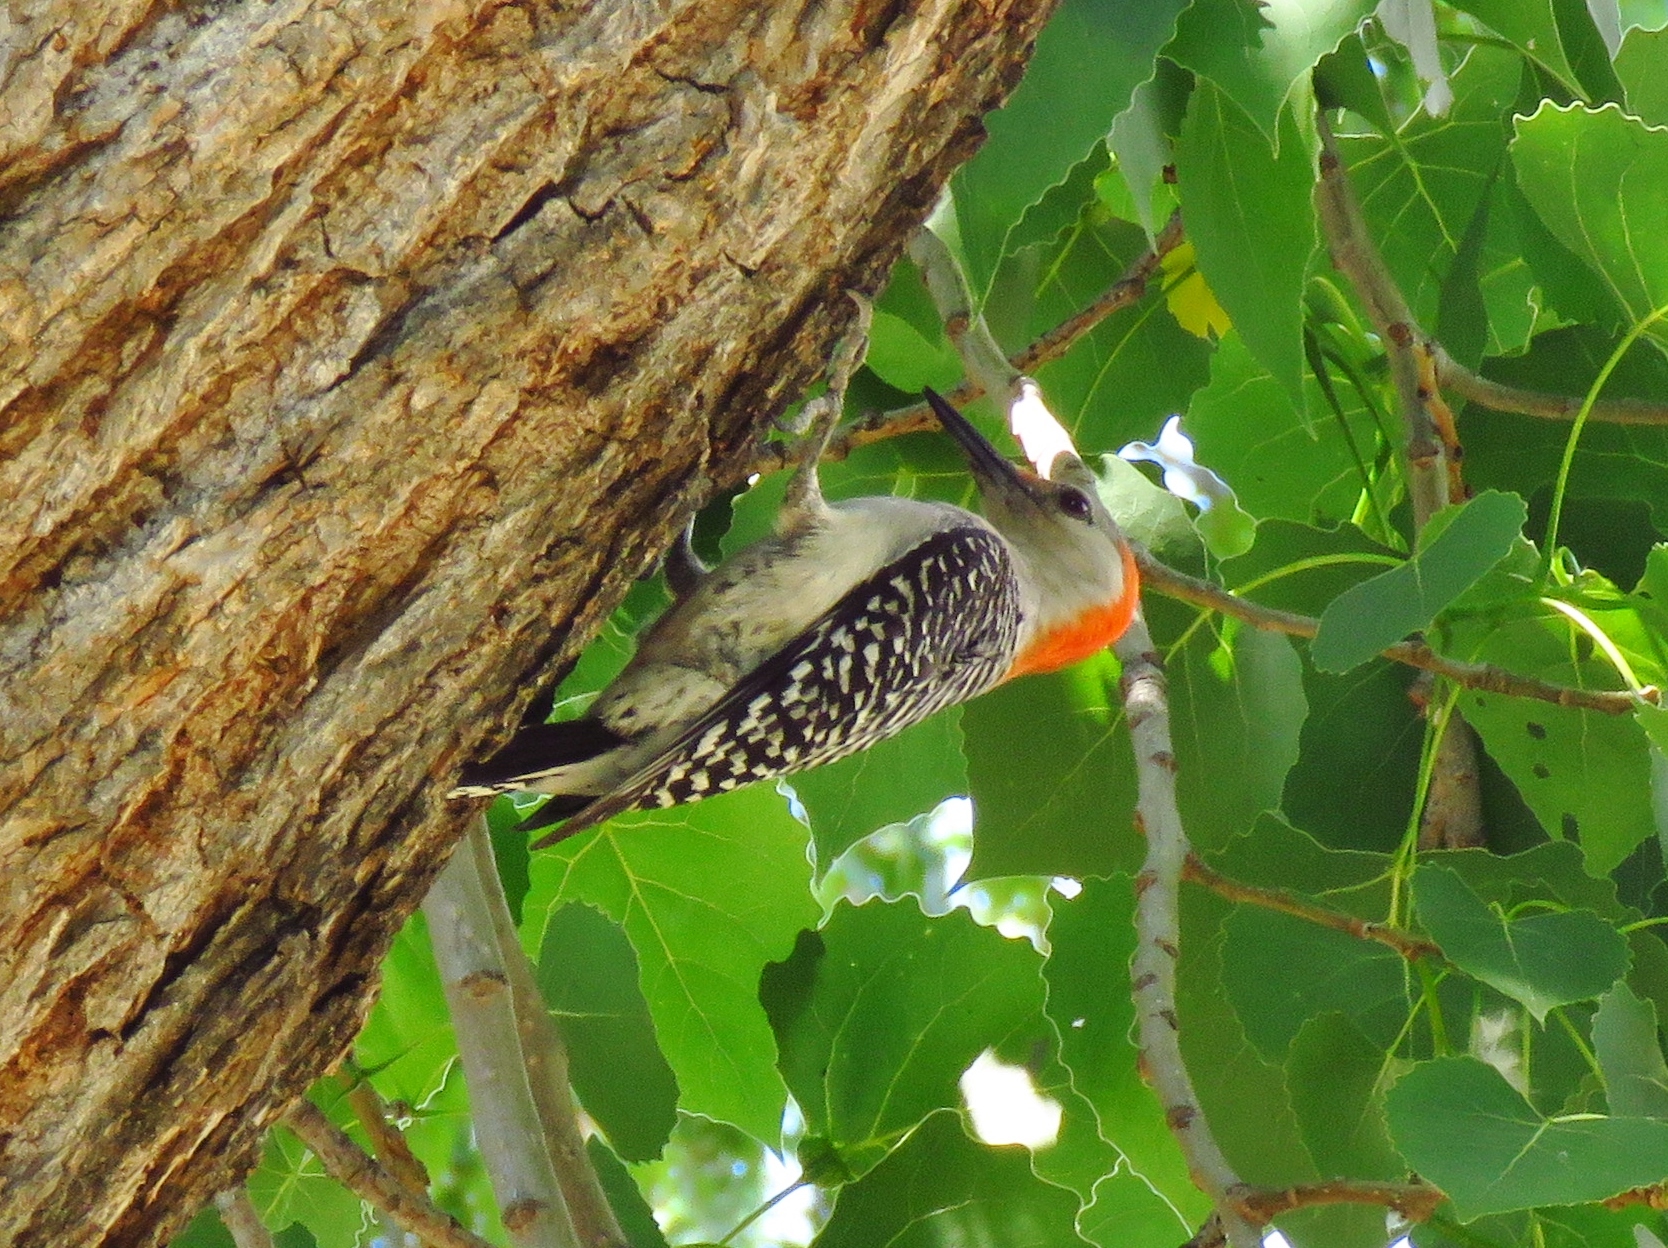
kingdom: Animalia
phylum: Chordata
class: Aves
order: Piciformes
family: Picidae
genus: Melanerpes
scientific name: Melanerpes carolinus
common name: Red-bellied woodpecker
